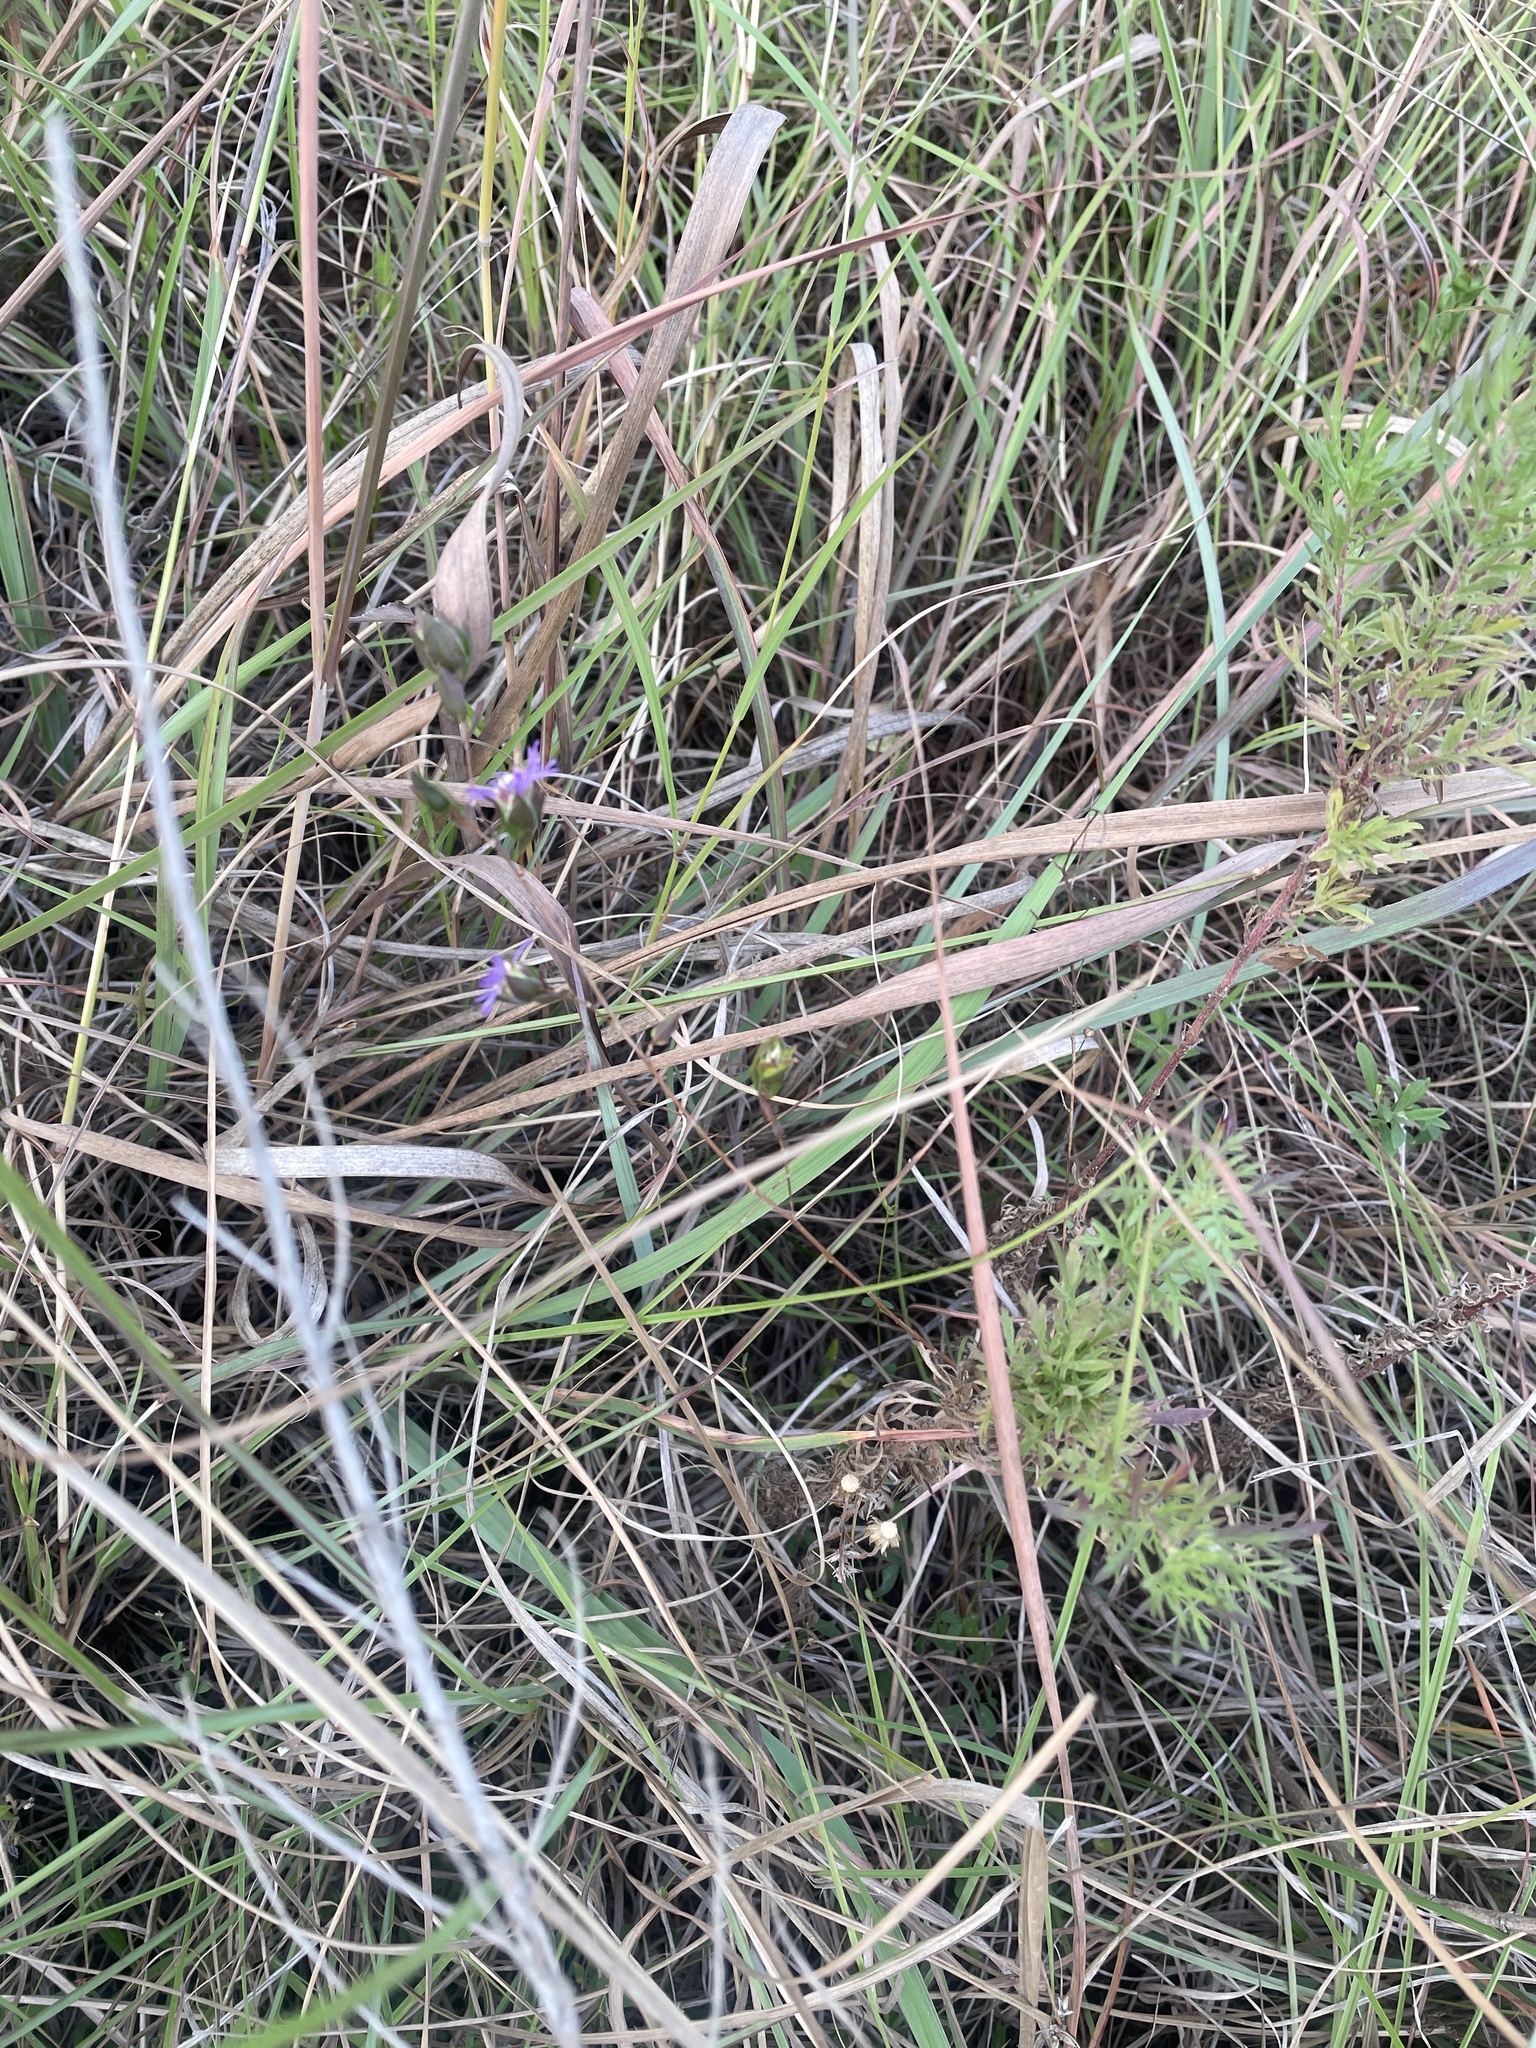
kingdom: Plantae
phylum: Tracheophyta
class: Magnoliopsida
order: Asterales
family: Asteraceae
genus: Symphyotrichum
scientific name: Symphyotrichum pratense
